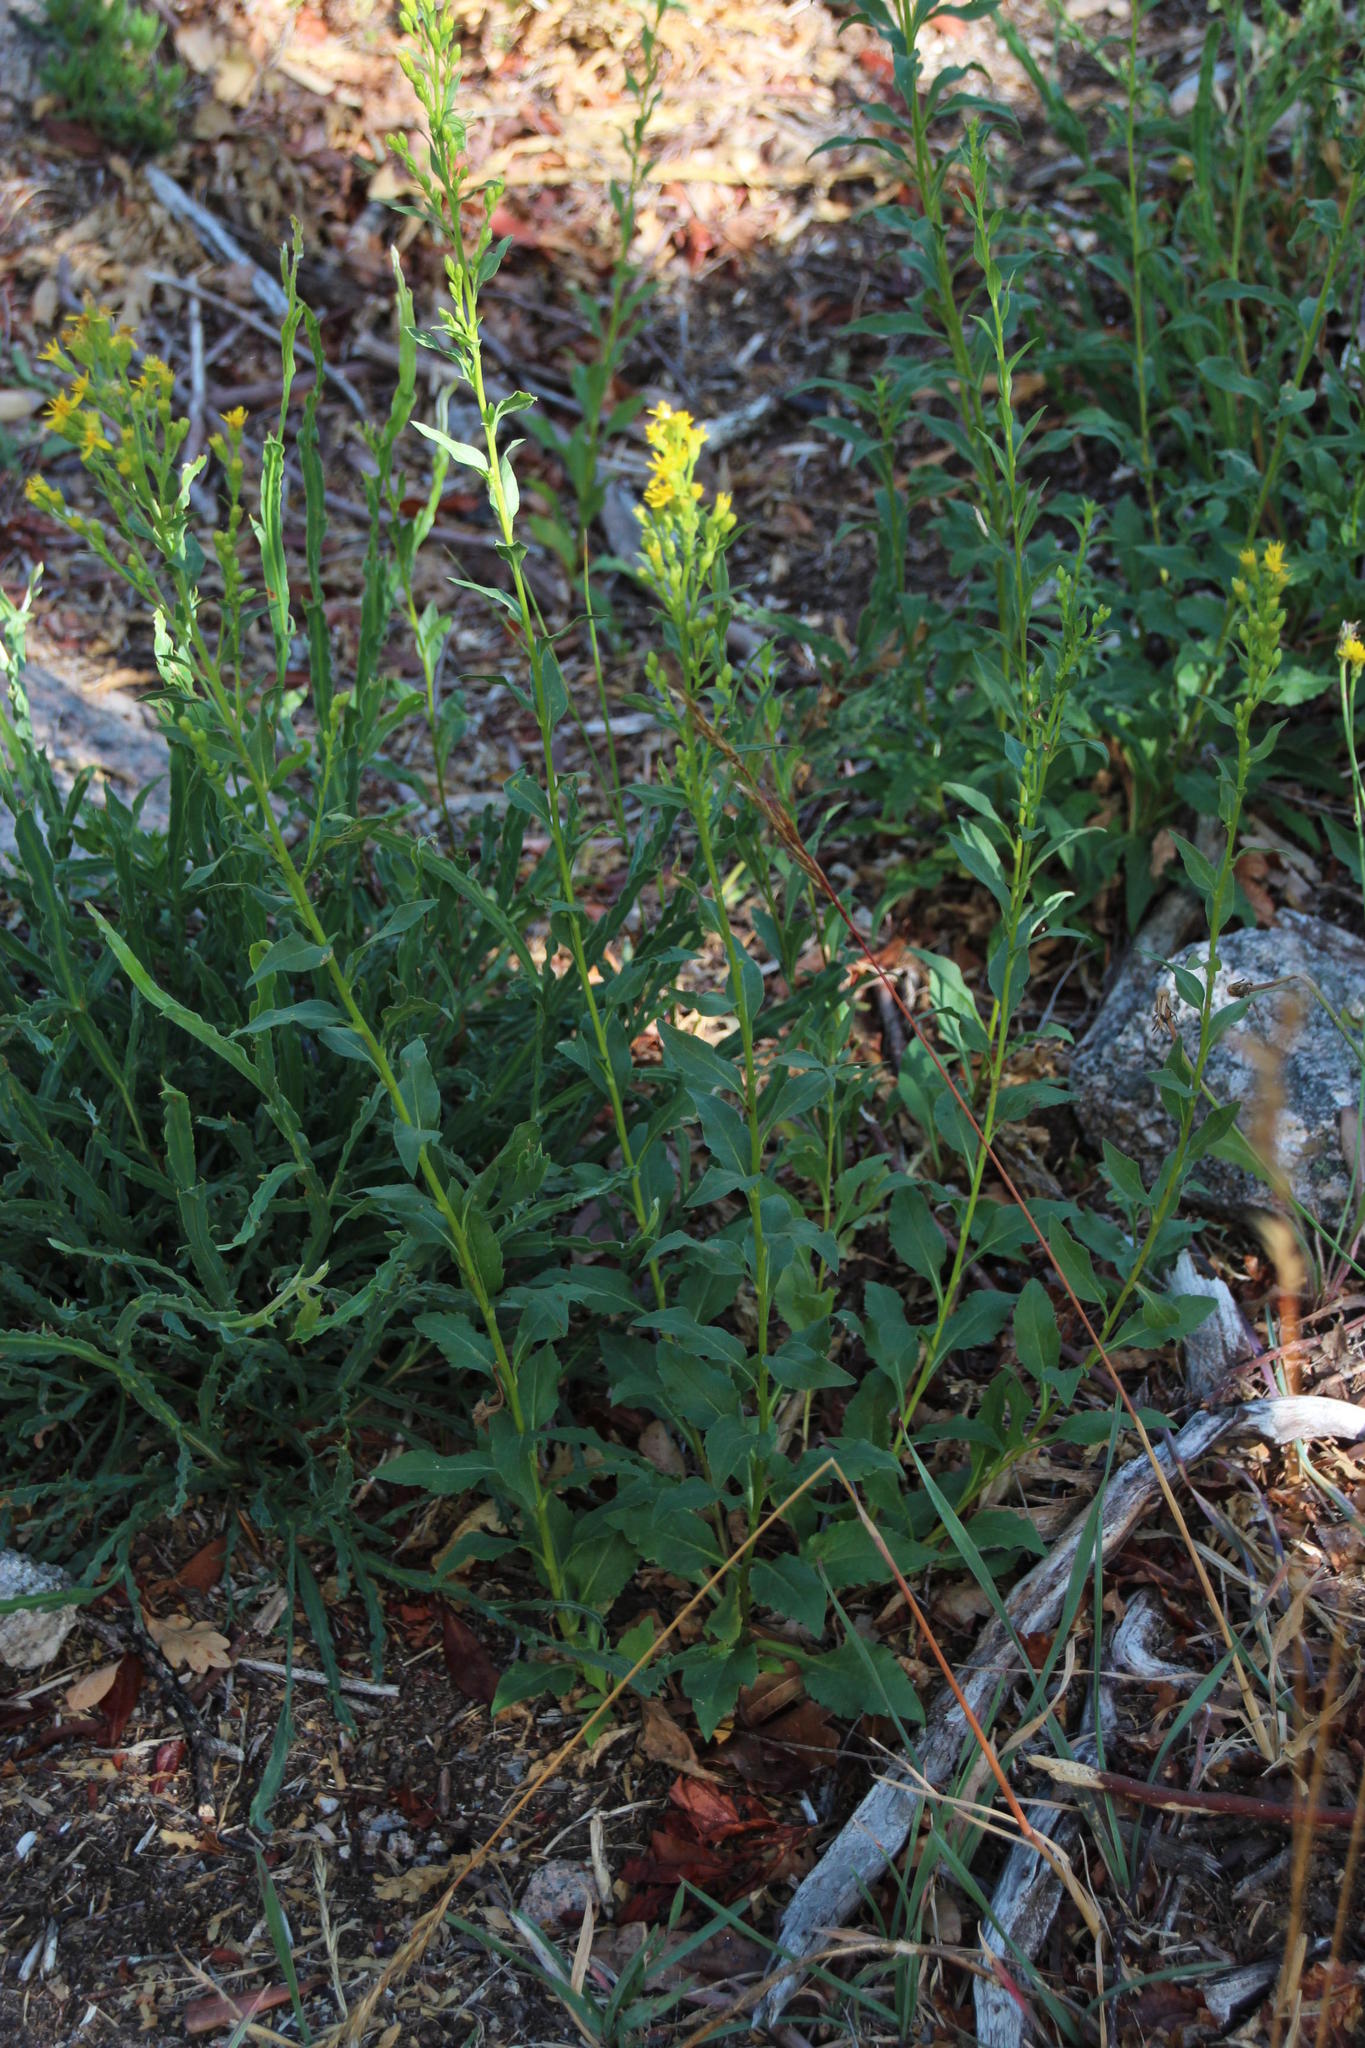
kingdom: Plantae
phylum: Tracheophyta
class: Magnoliopsida
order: Asterales
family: Asteraceae
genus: Solidago
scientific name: Solidago virgaurea
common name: Goldenrod
